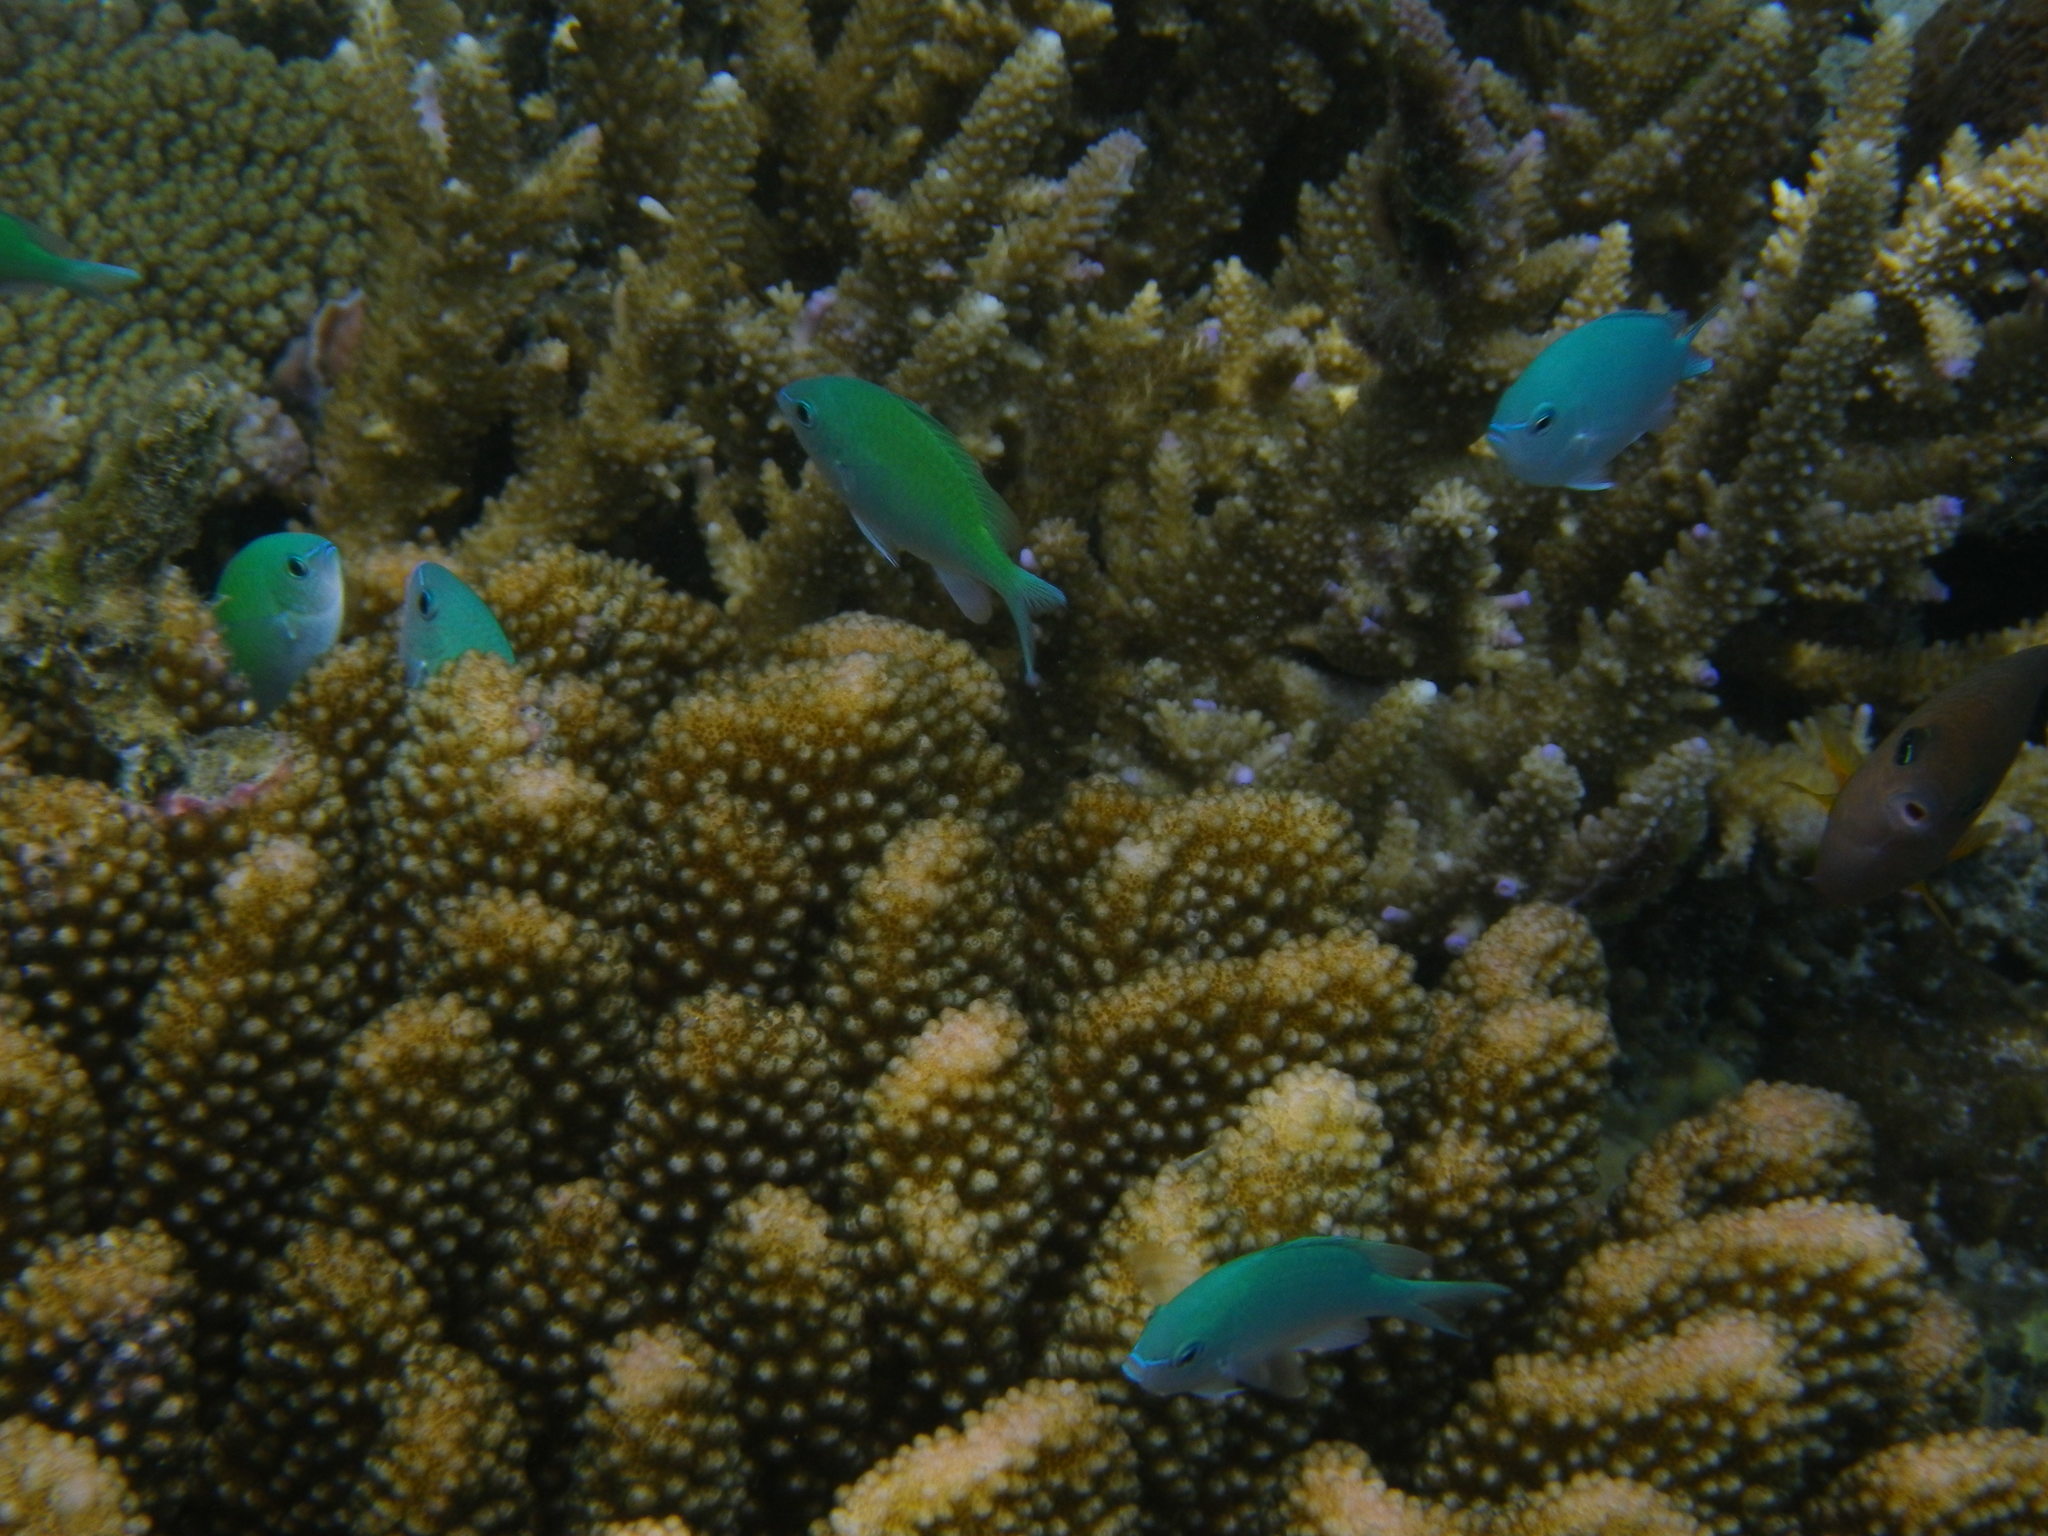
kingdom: Animalia
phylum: Chordata
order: Perciformes
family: Pomacentridae
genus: Chromis
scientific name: Chromis viridis
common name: Blue-green chromis
